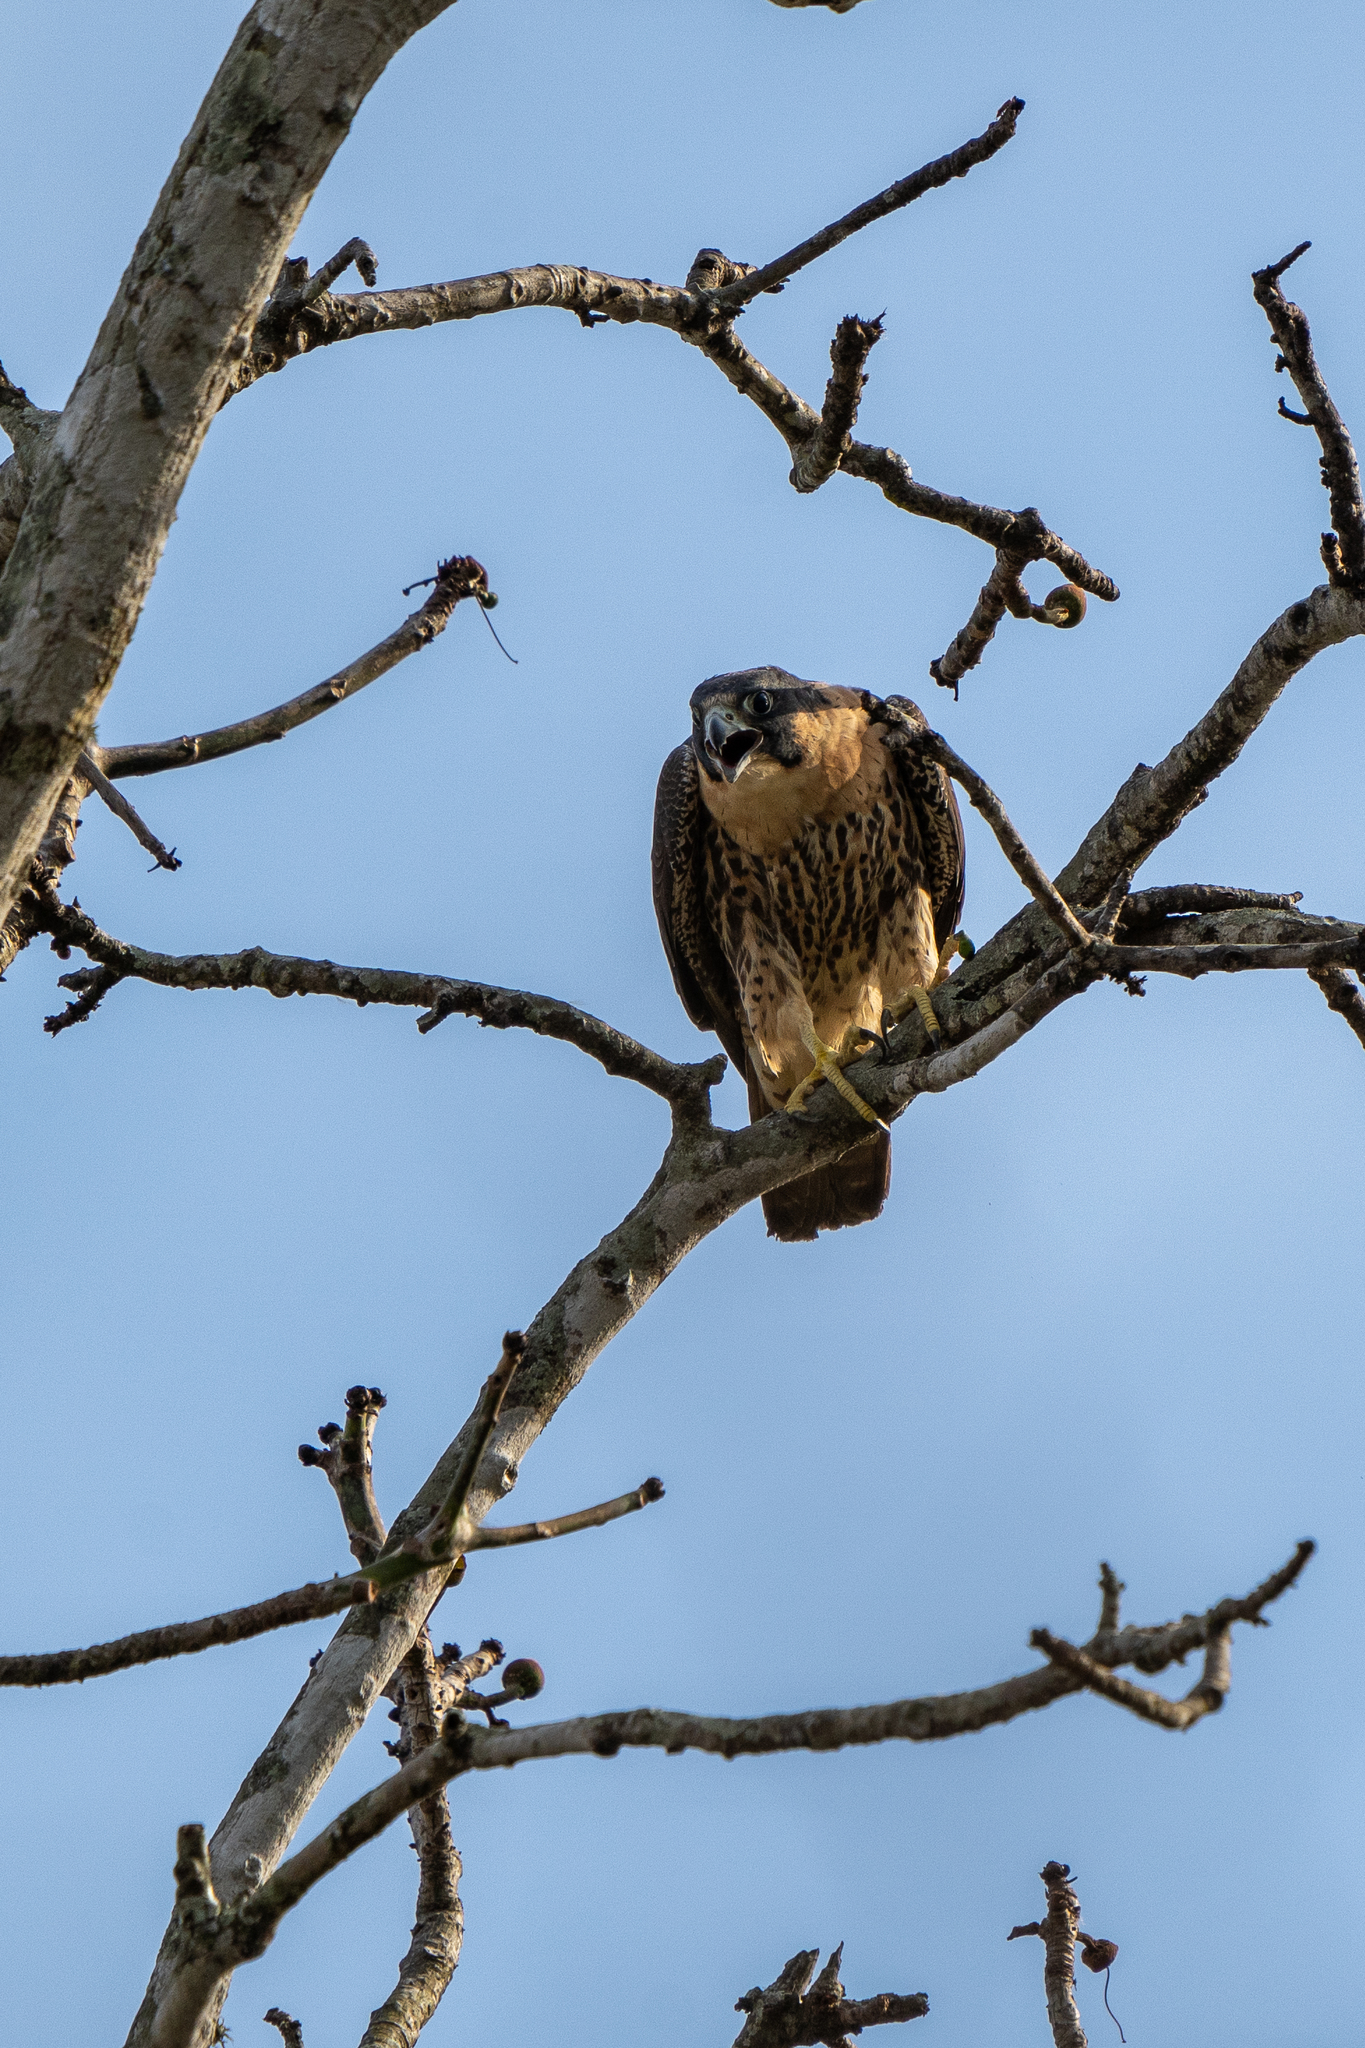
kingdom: Animalia
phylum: Chordata
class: Aves
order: Falconiformes
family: Falconidae
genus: Falco
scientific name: Falco peregrinus
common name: Peregrine falcon
